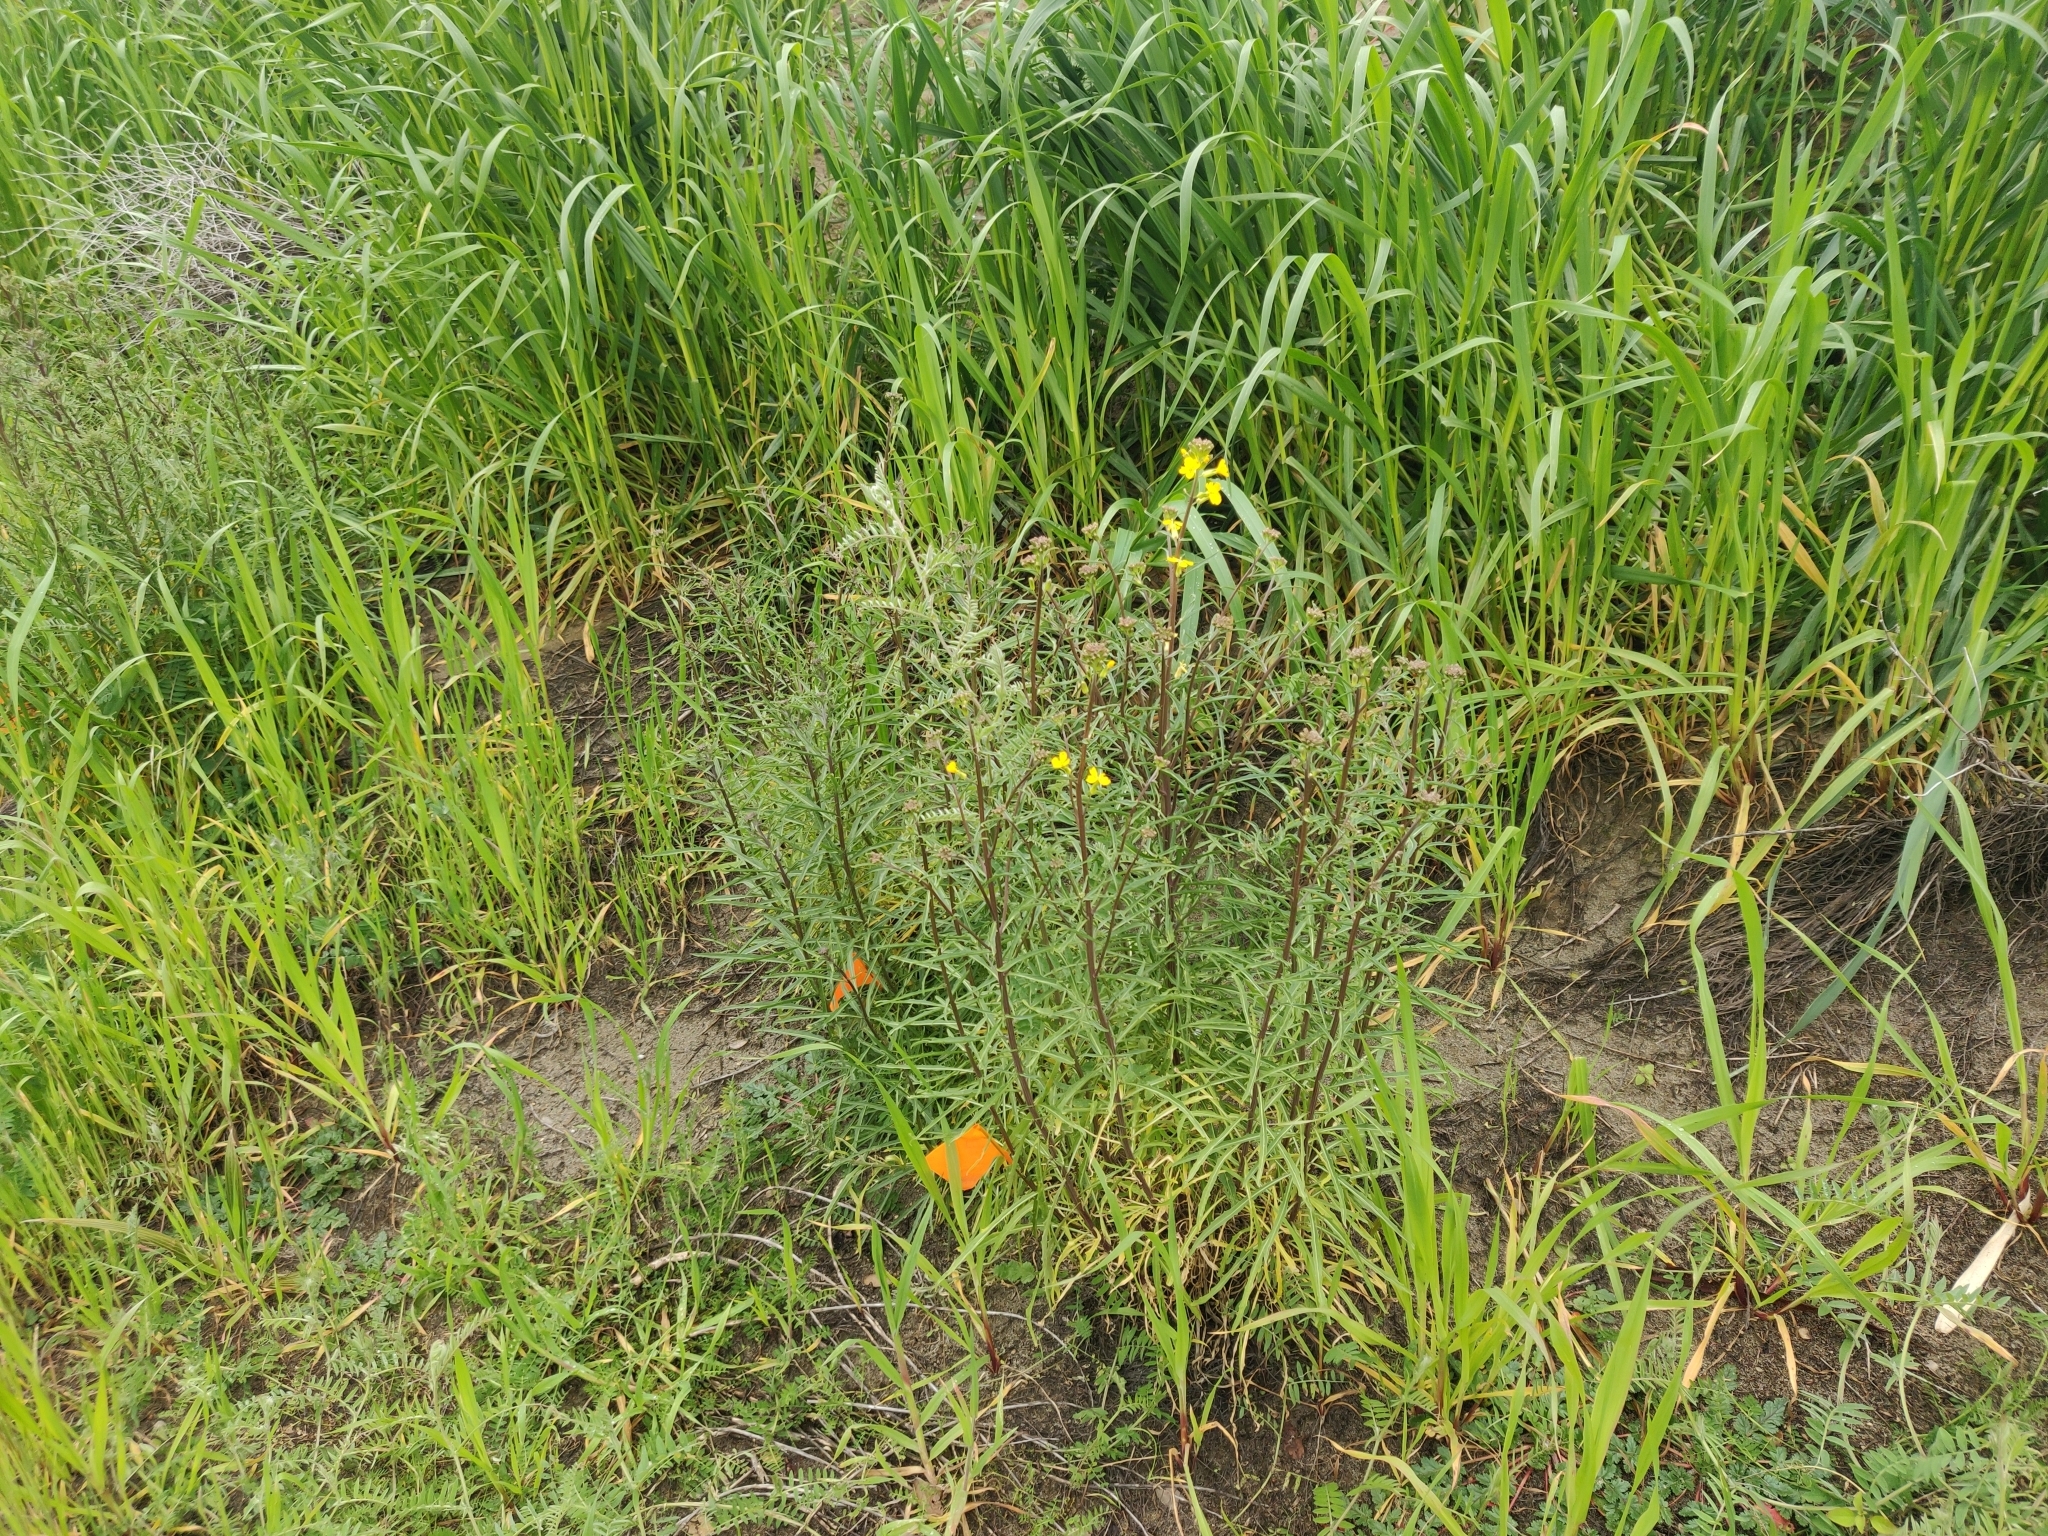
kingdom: Plantae
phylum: Tracheophyta
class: Magnoliopsida
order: Brassicales
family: Brassicaceae
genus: Erysimum
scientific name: Erysimum capitatum
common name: Western wallflower
